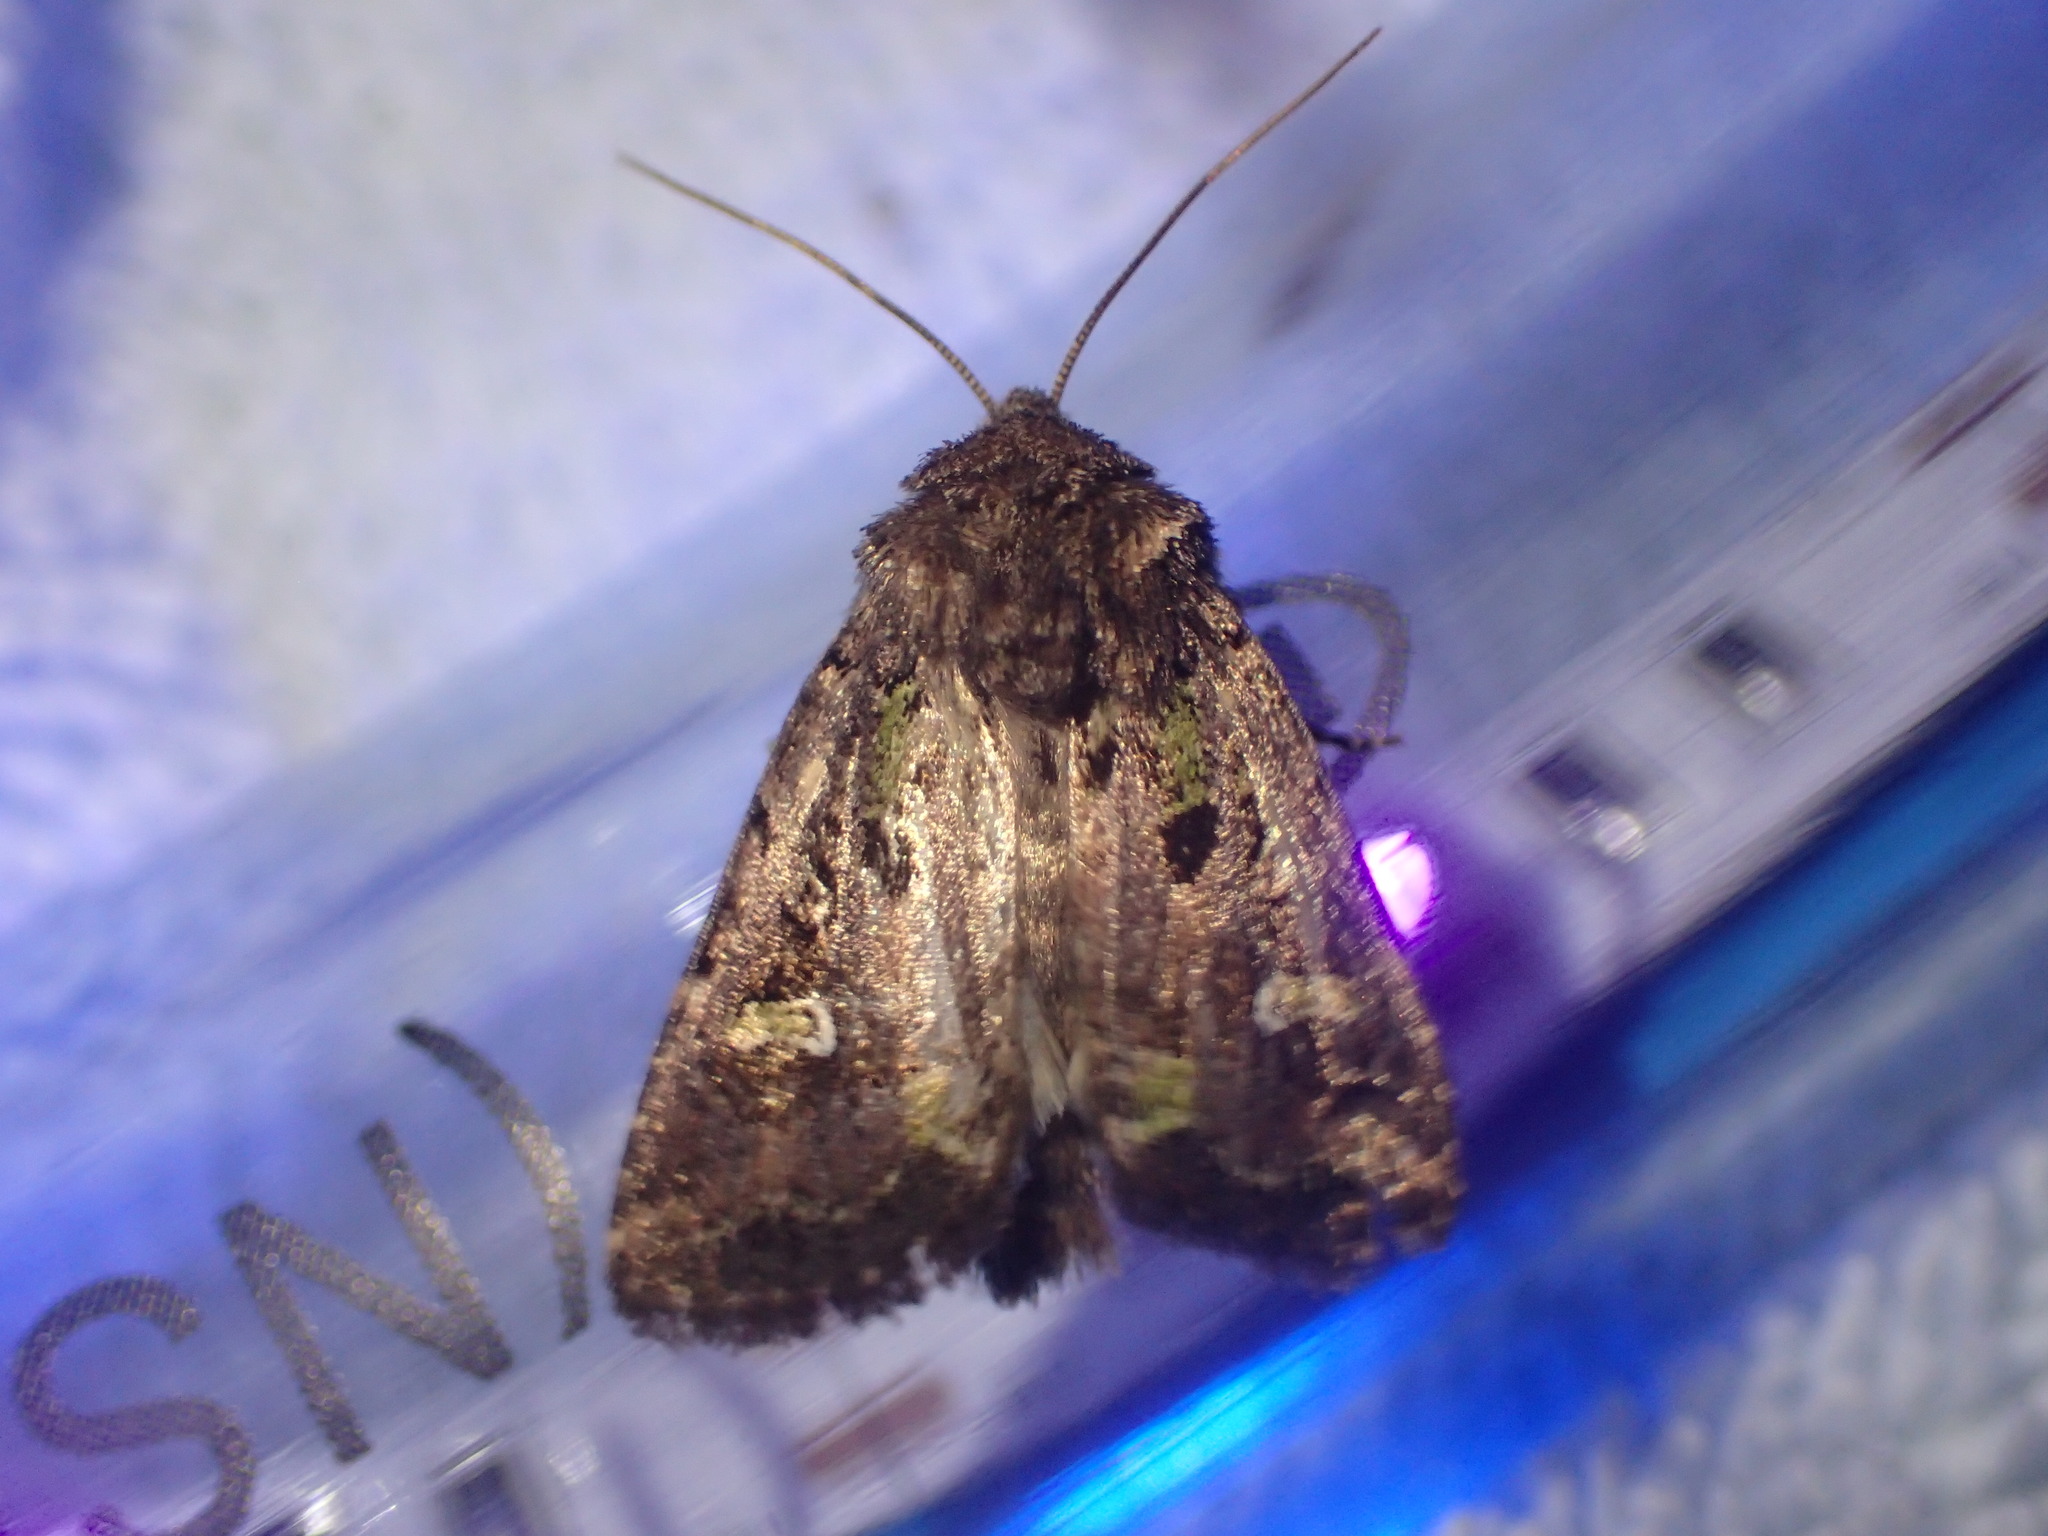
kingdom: Animalia
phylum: Arthropoda
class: Insecta
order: Lepidoptera
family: Noctuidae
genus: Lacinipolia
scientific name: Lacinipolia renigera
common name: Kidney-spotted minor
